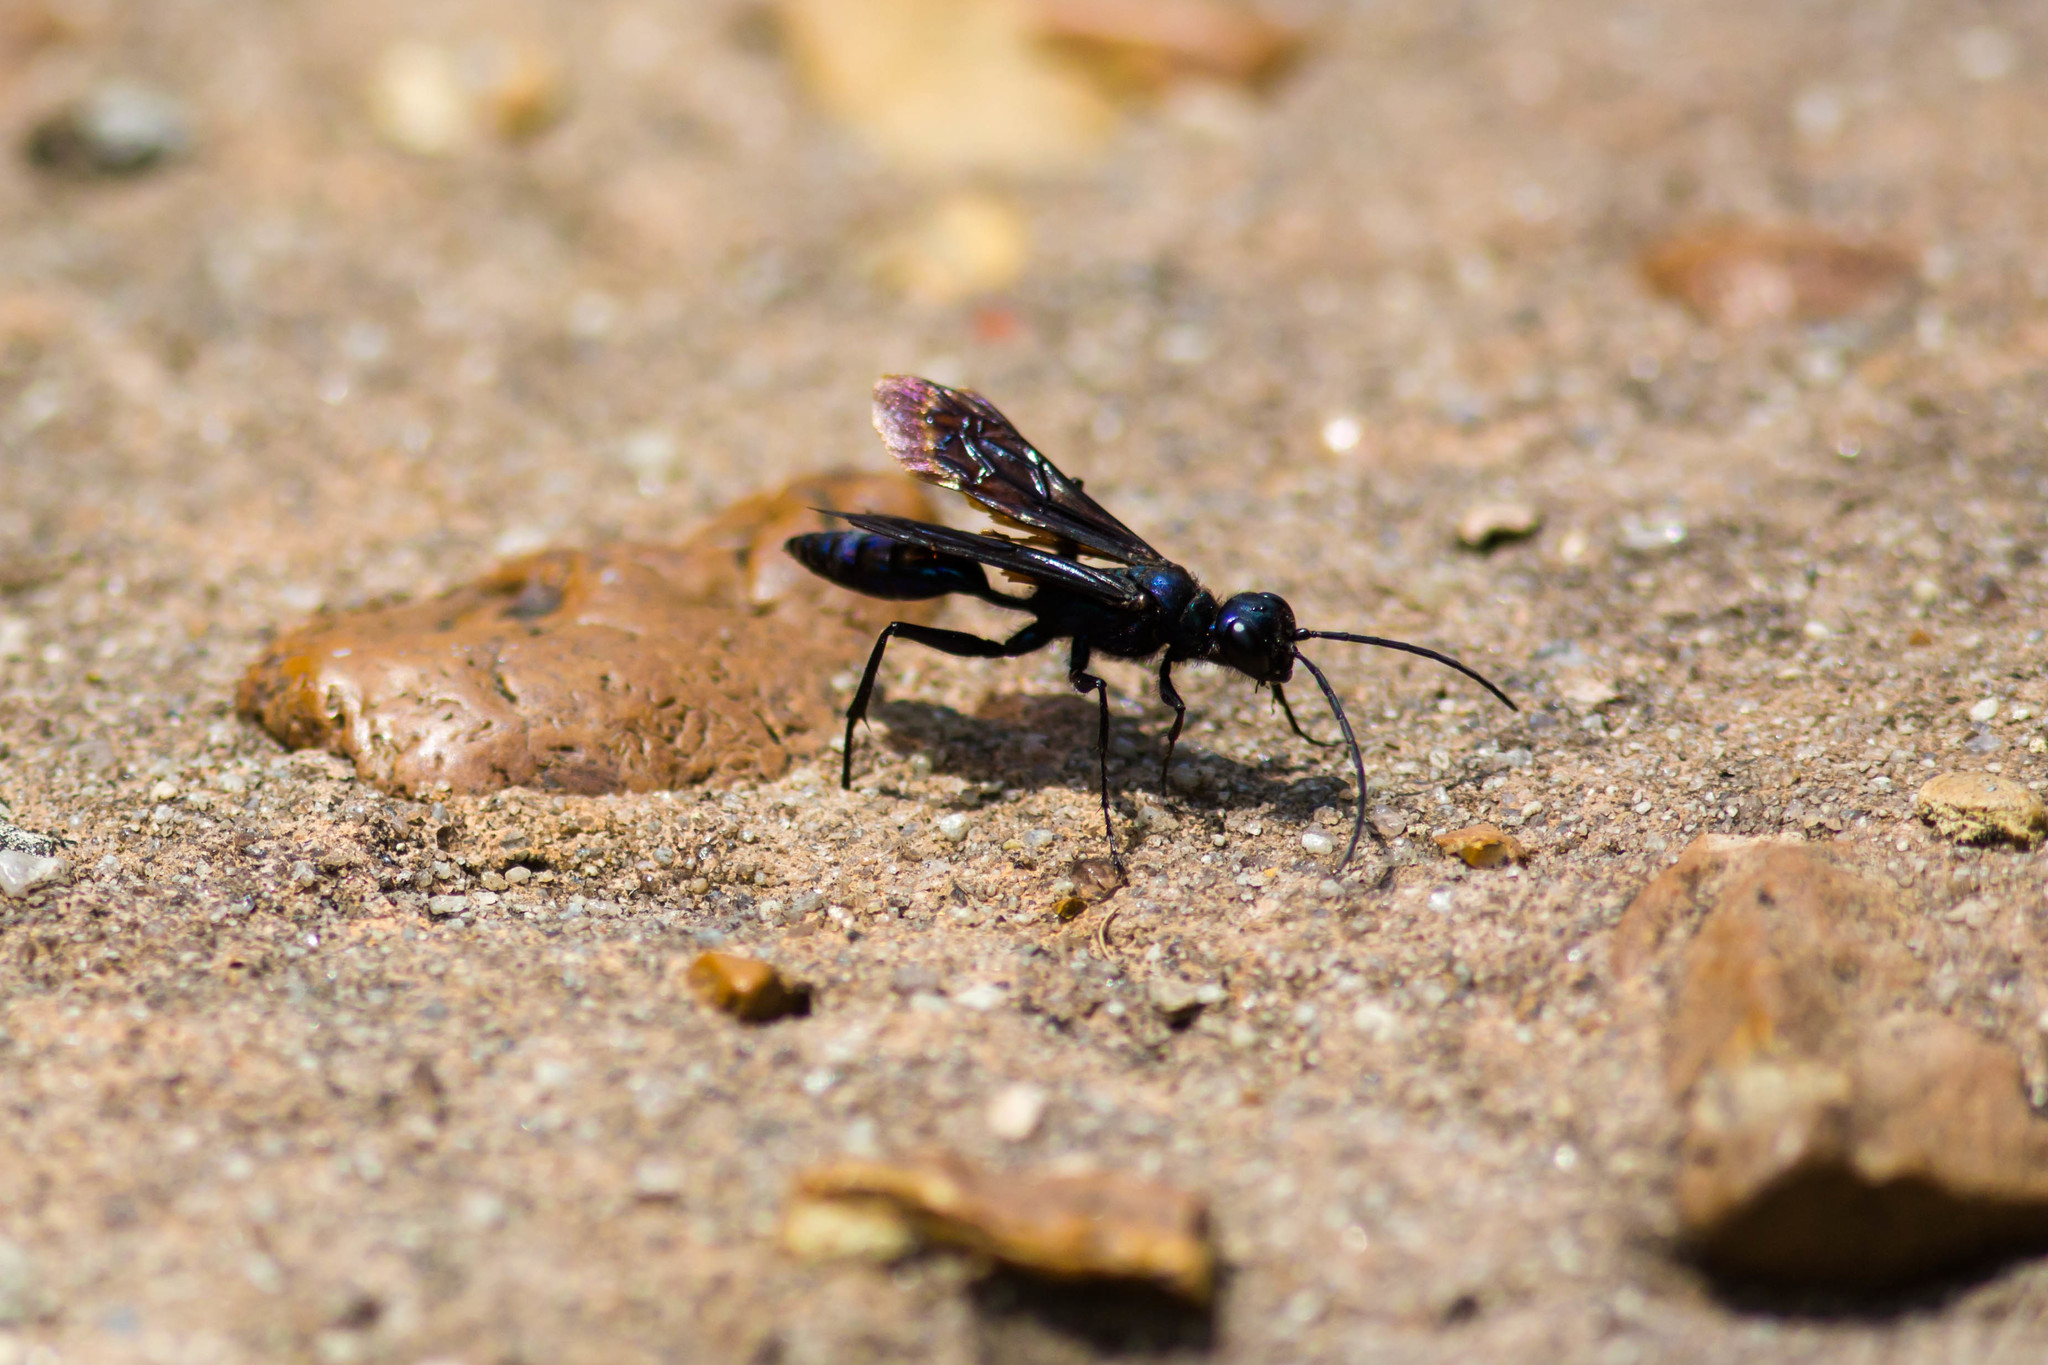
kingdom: Animalia
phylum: Arthropoda
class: Insecta
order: Hymenoptera
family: Sphecidae
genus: Chlorion
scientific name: Chlorion aerarium
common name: Steel-blue cricket hunter
